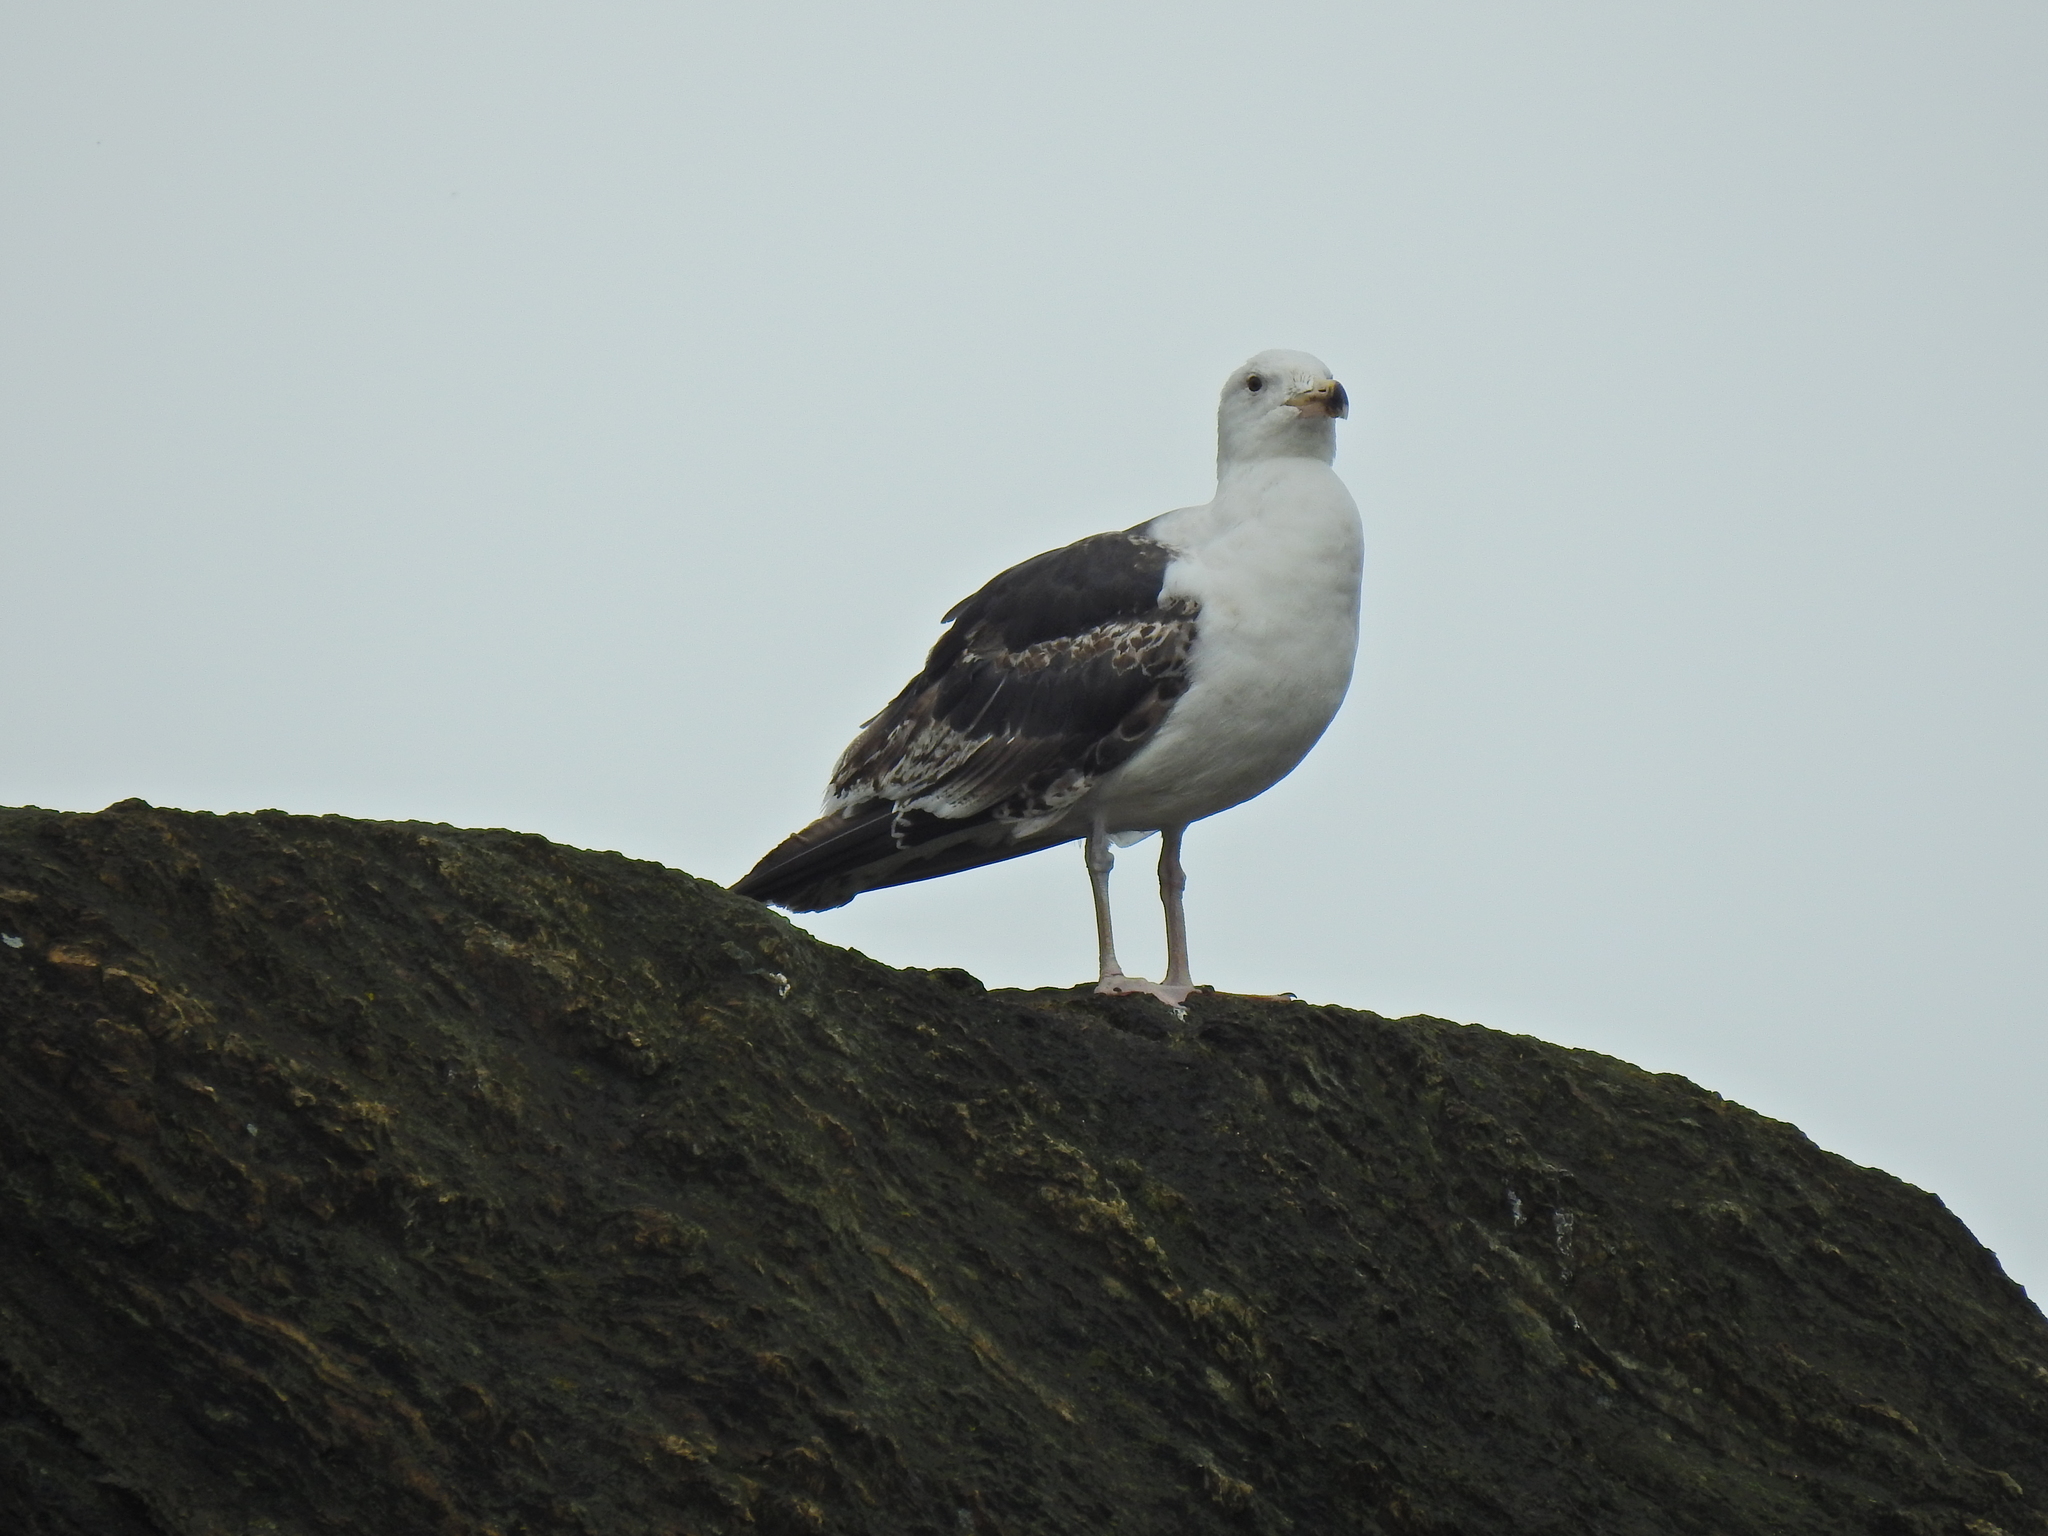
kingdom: Animalia
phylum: Chordata
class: Aves
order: Charadriiformes
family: Laridae
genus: Larus
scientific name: Larus marinus
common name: Great black-backed gull
